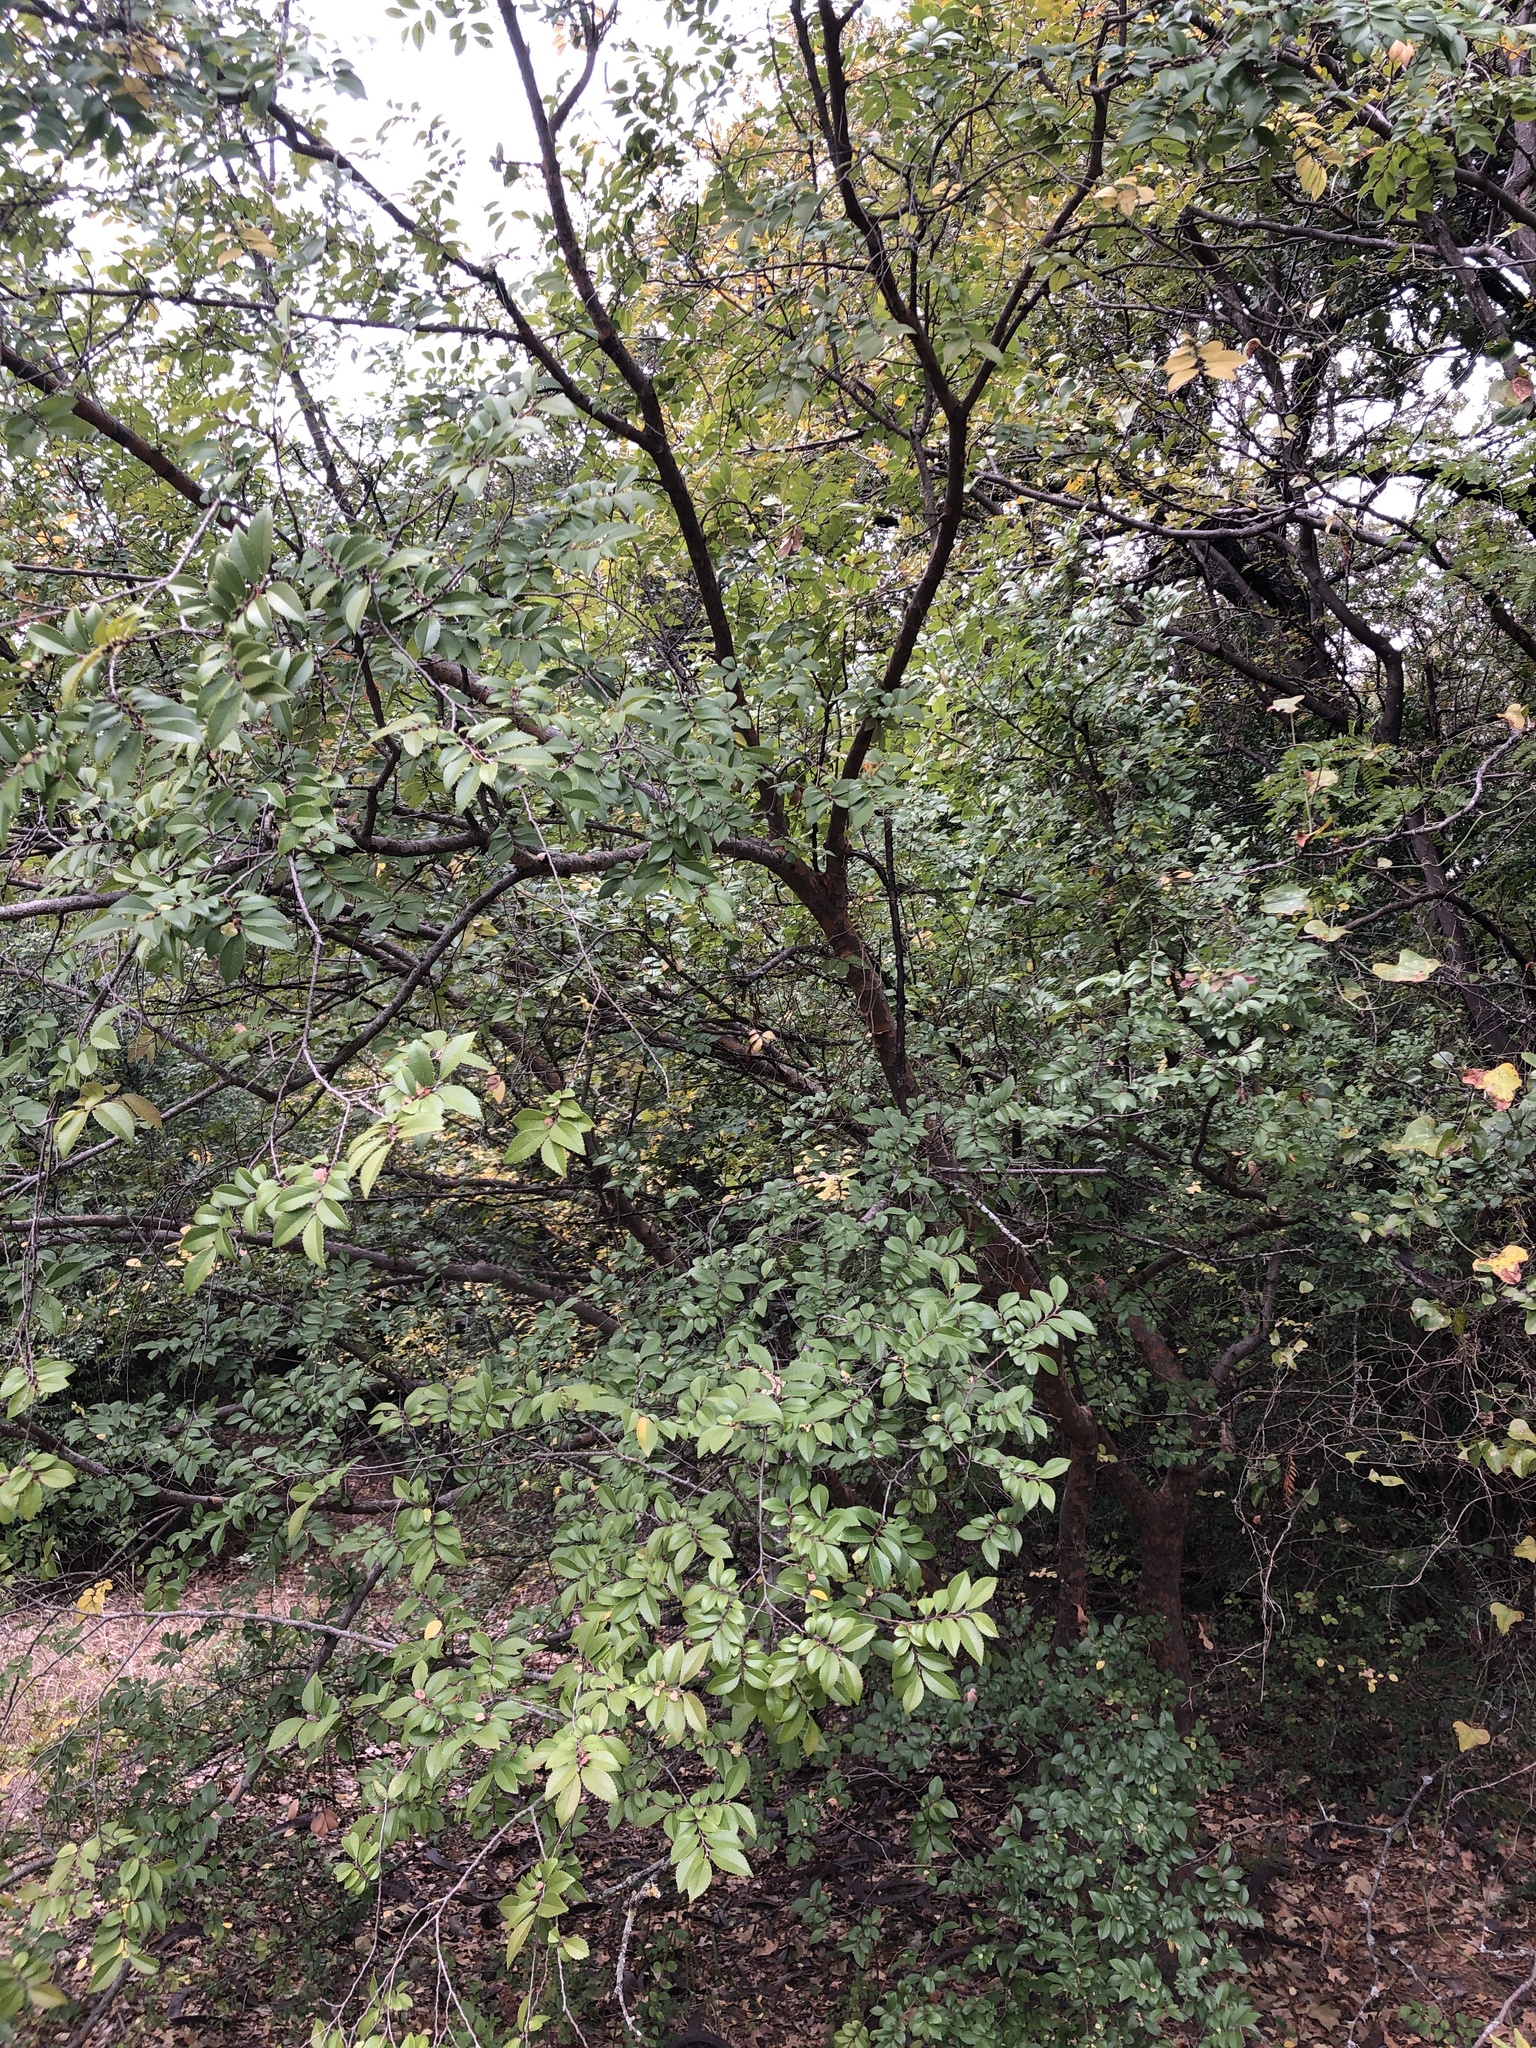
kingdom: Plantae
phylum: Tracheophyta
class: Magnoliopsida
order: Rosales
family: Ulmaceae
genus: Ulmus
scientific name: Ulmus parvifolia
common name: Chinese elm
